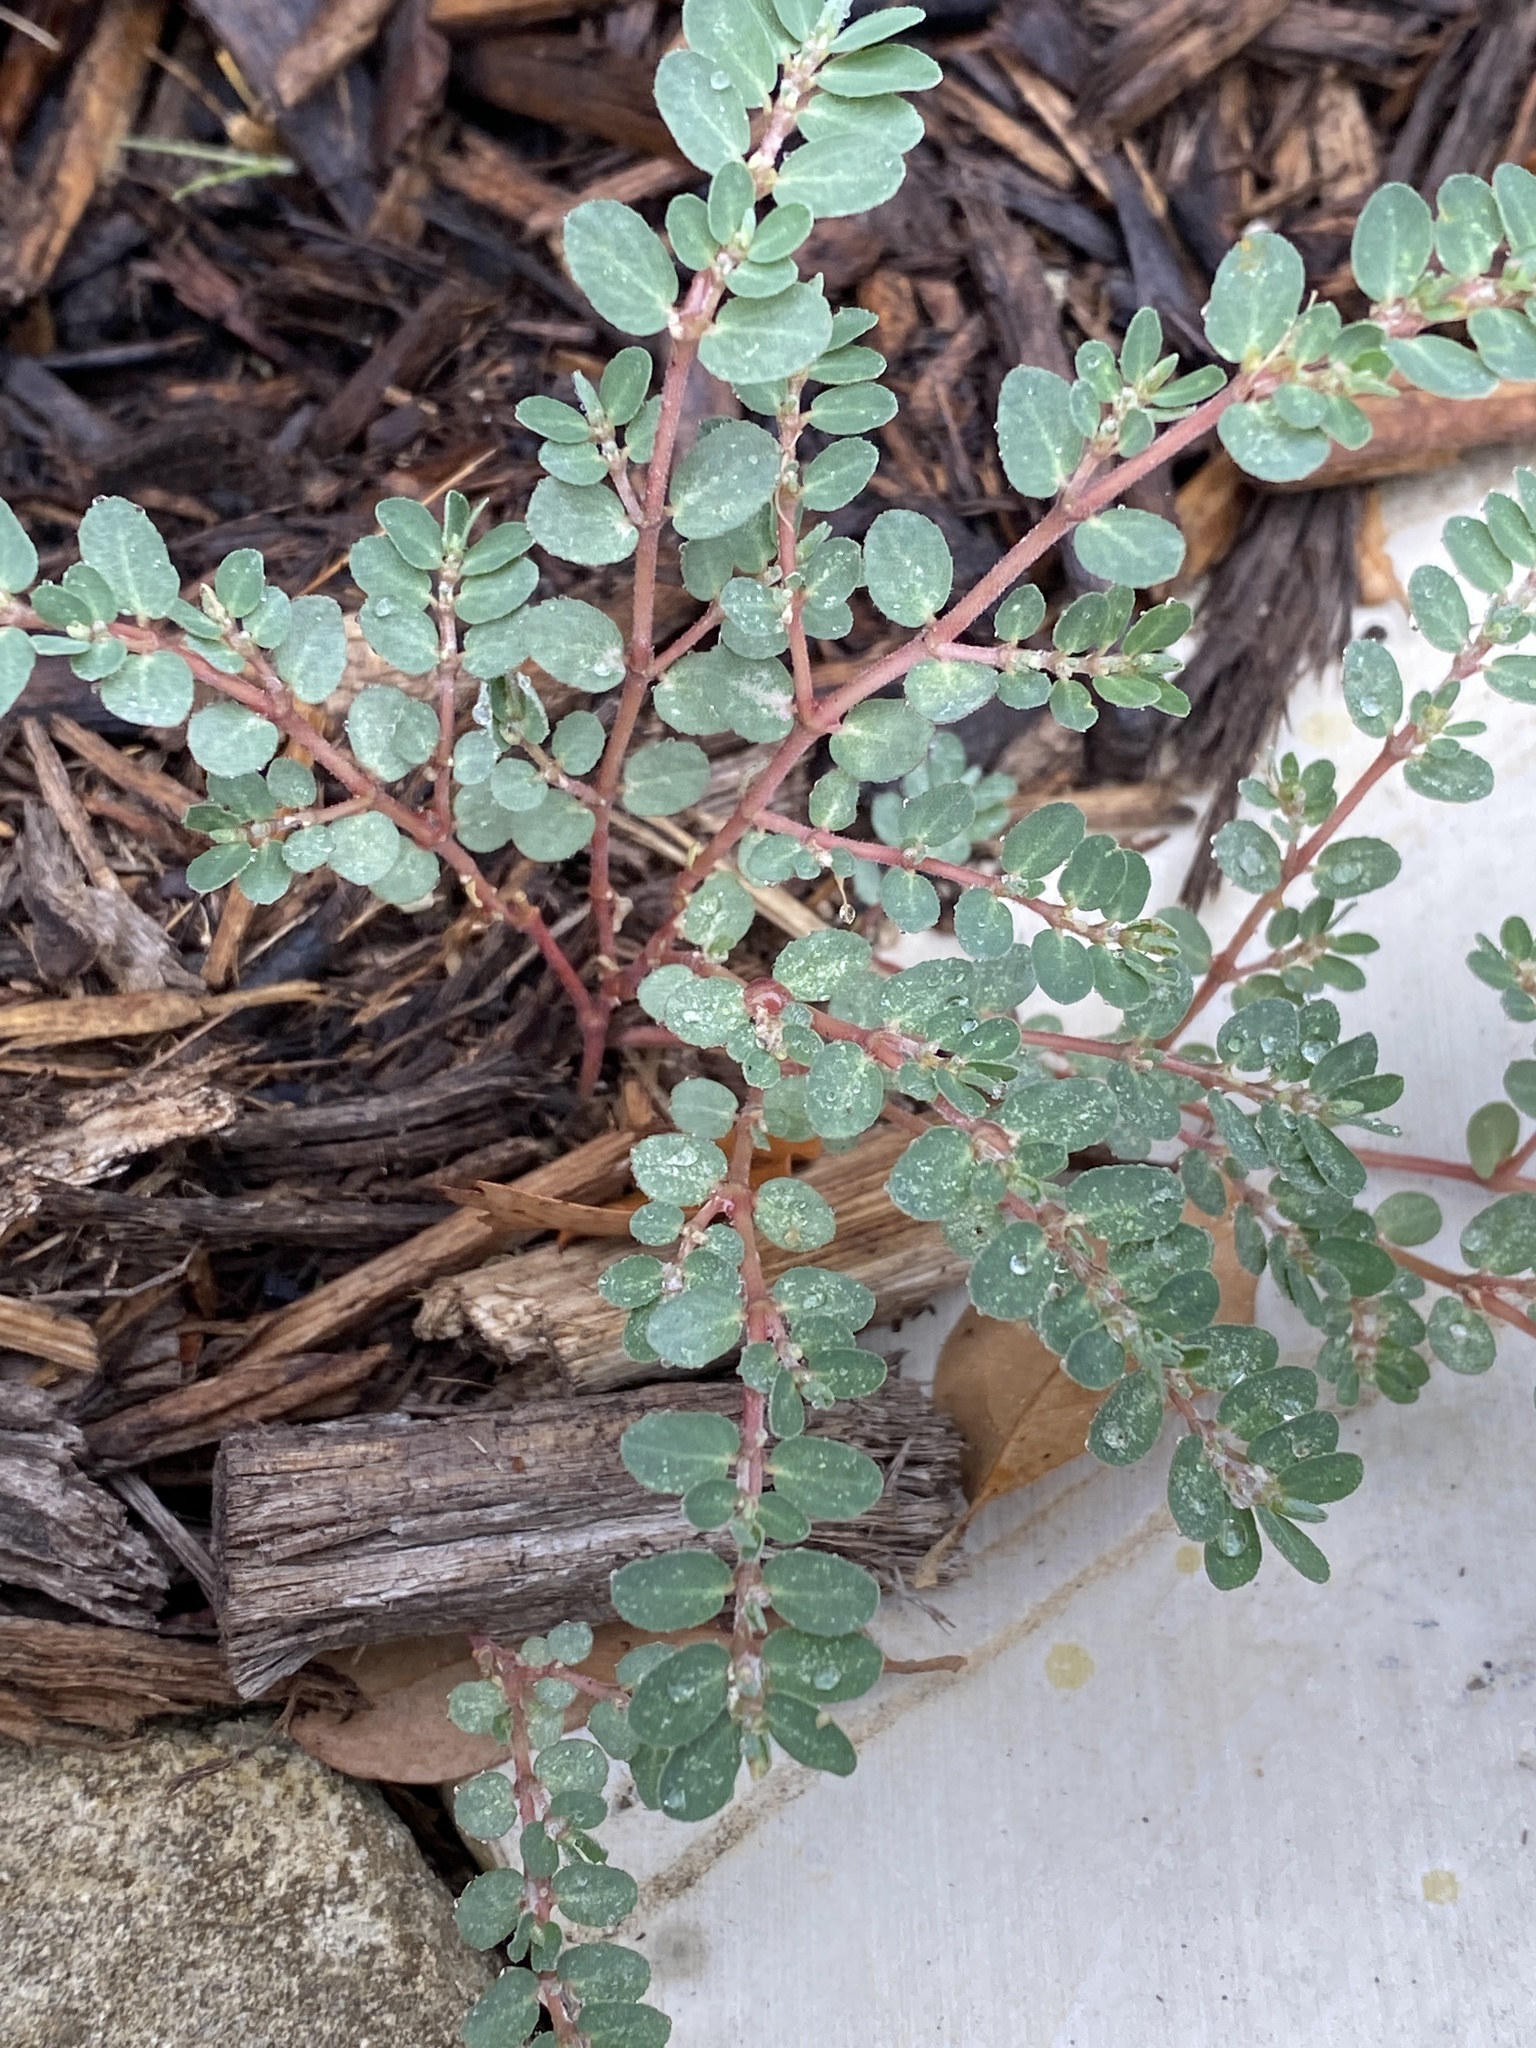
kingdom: Plantae
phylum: Tracheophyta
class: Magnoliopsida
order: Malpighiales
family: Euphorbiaceae
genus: Euphorbia
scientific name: Euphorbia prostrata
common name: Prostrate sandmat
